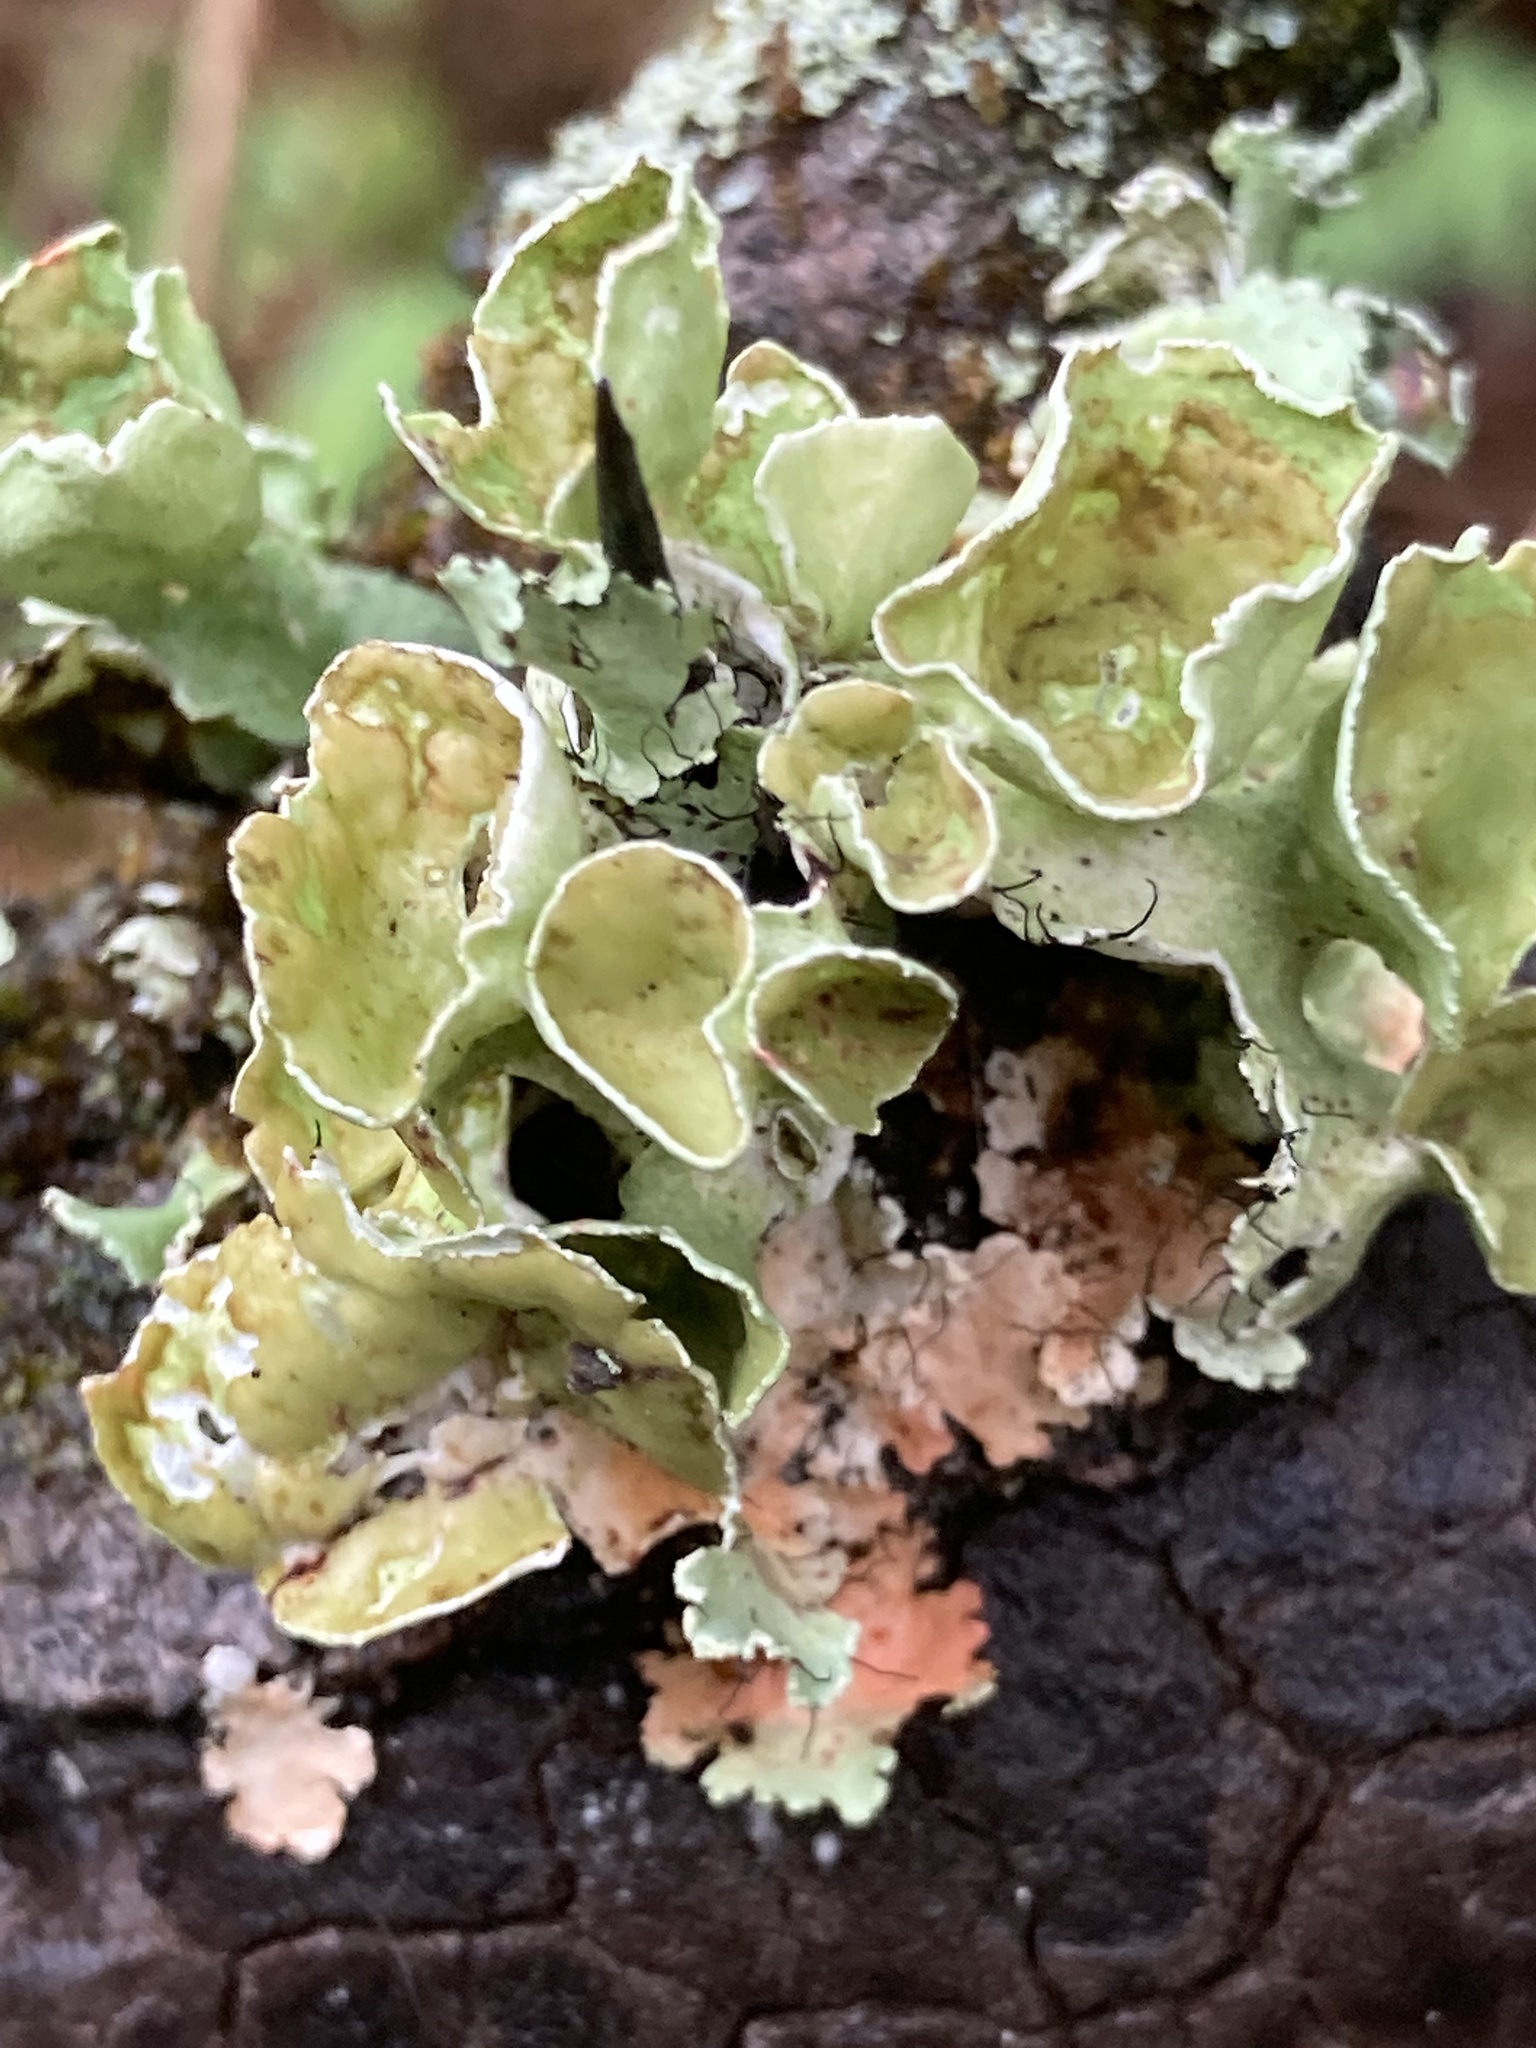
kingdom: Fungi
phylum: Ascomycota
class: Lecanoromycetes
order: Lecanorales
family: Parmeliaceae
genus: Parmotrema
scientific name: Parmotrema perforatum
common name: Perforated ruffle lichen
